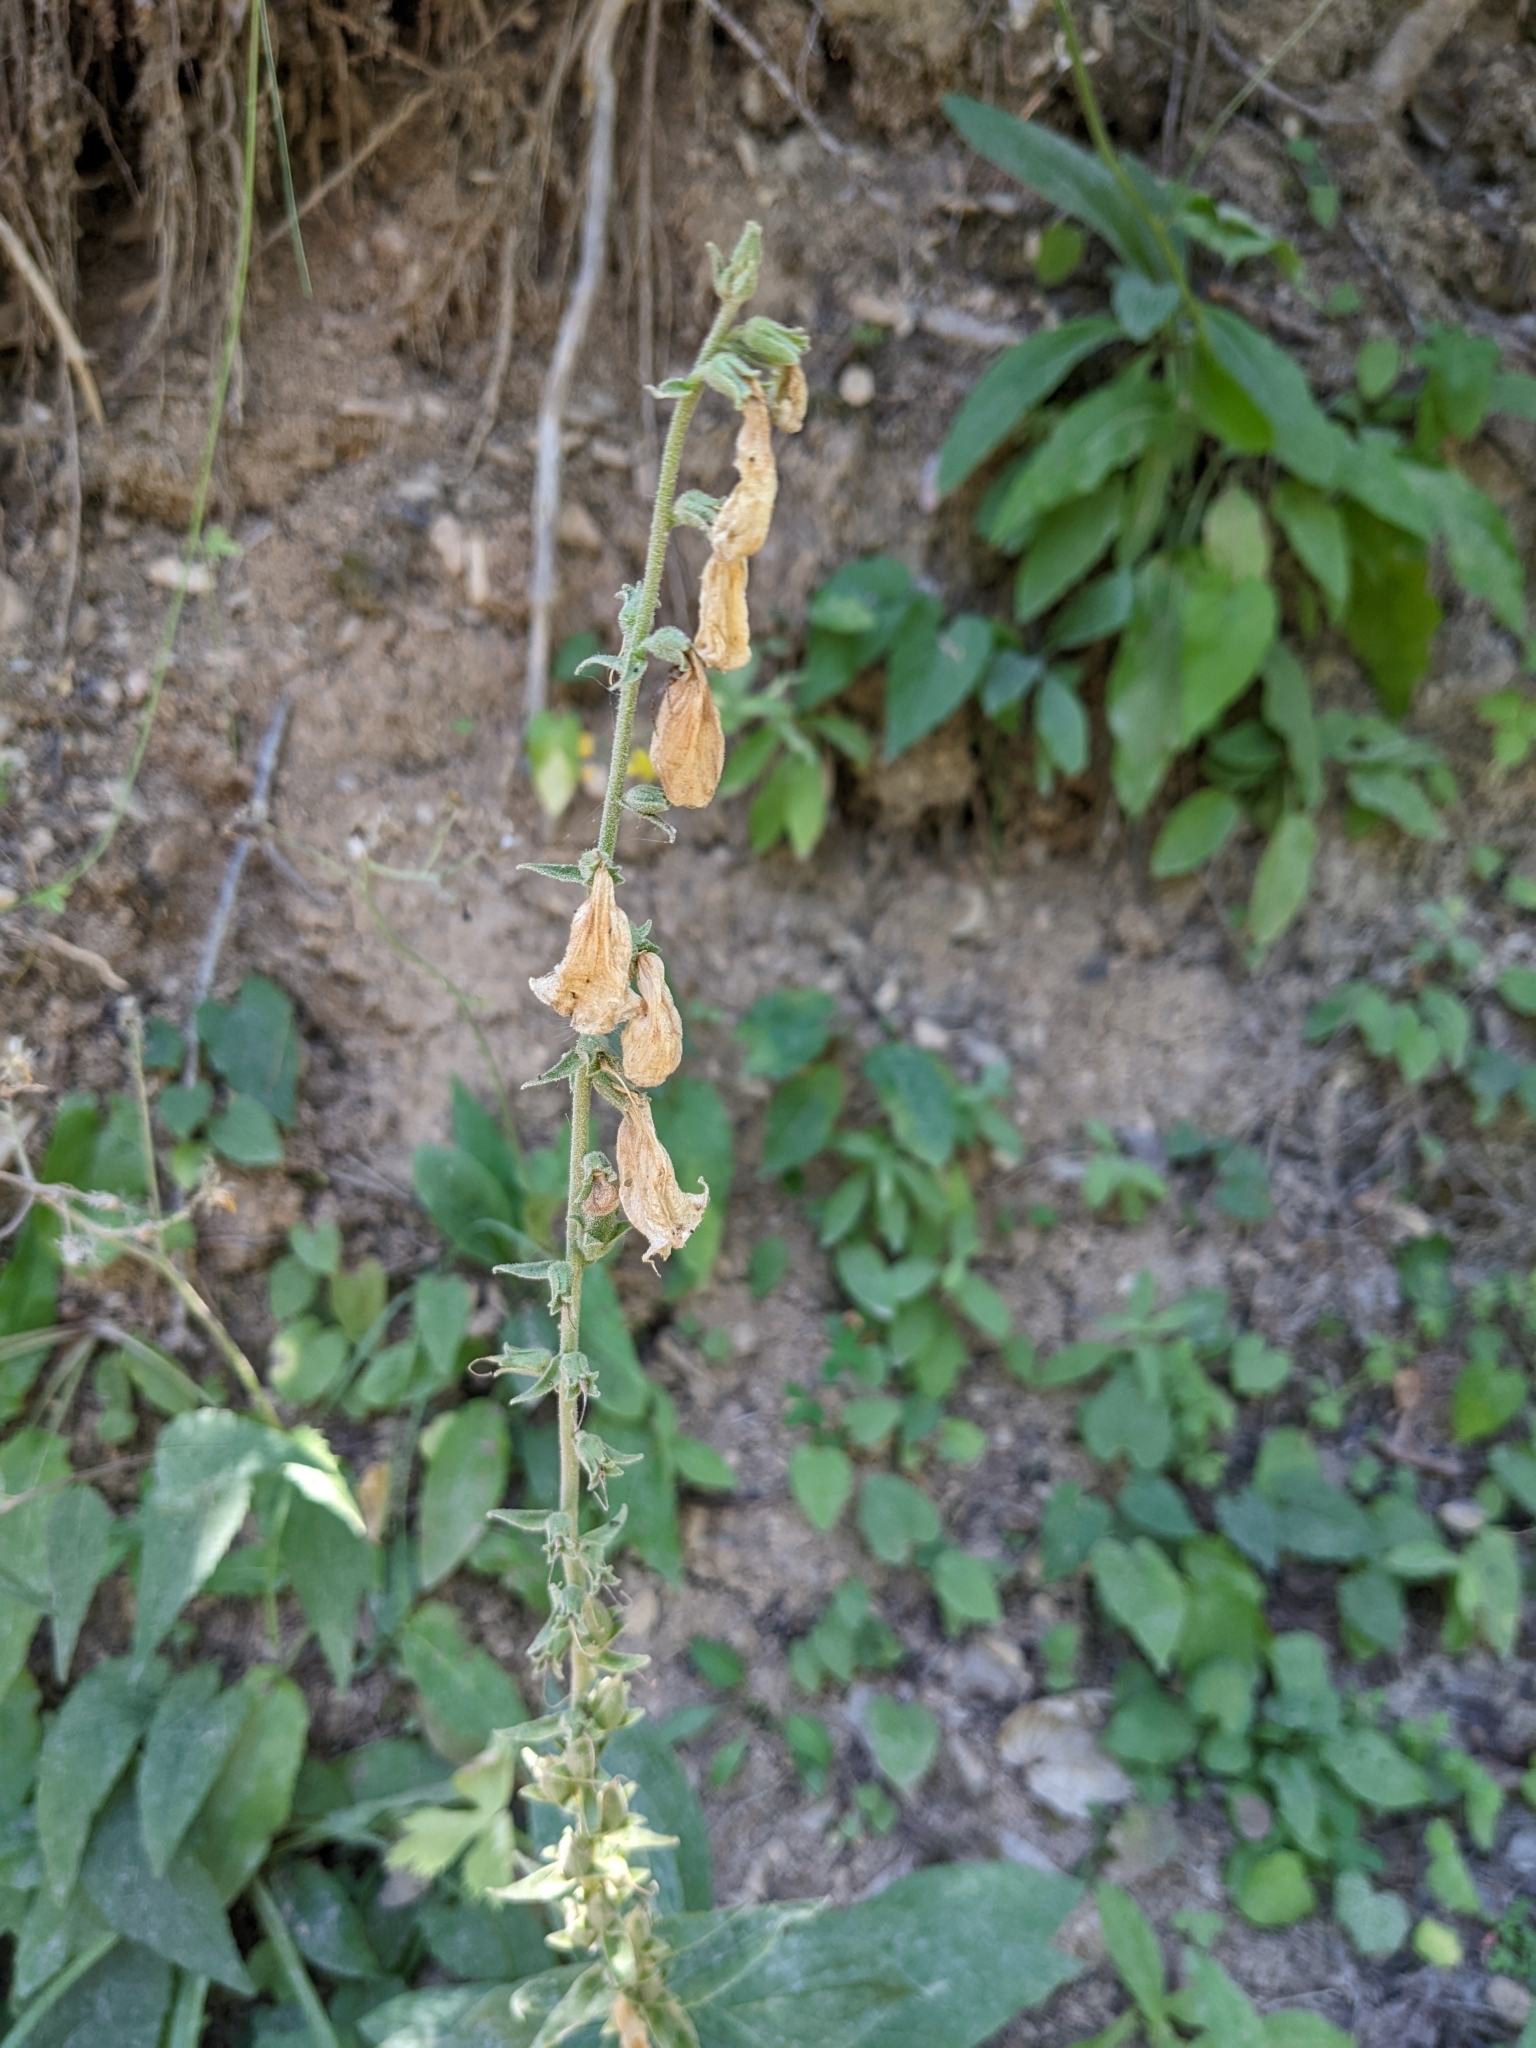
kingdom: Plantae
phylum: Tracheophyta
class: Magnoliopsida
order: Lamiales
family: Plantaginaceae
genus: Digitalis
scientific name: Digitalis grandiflora
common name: Yellow foxglove
